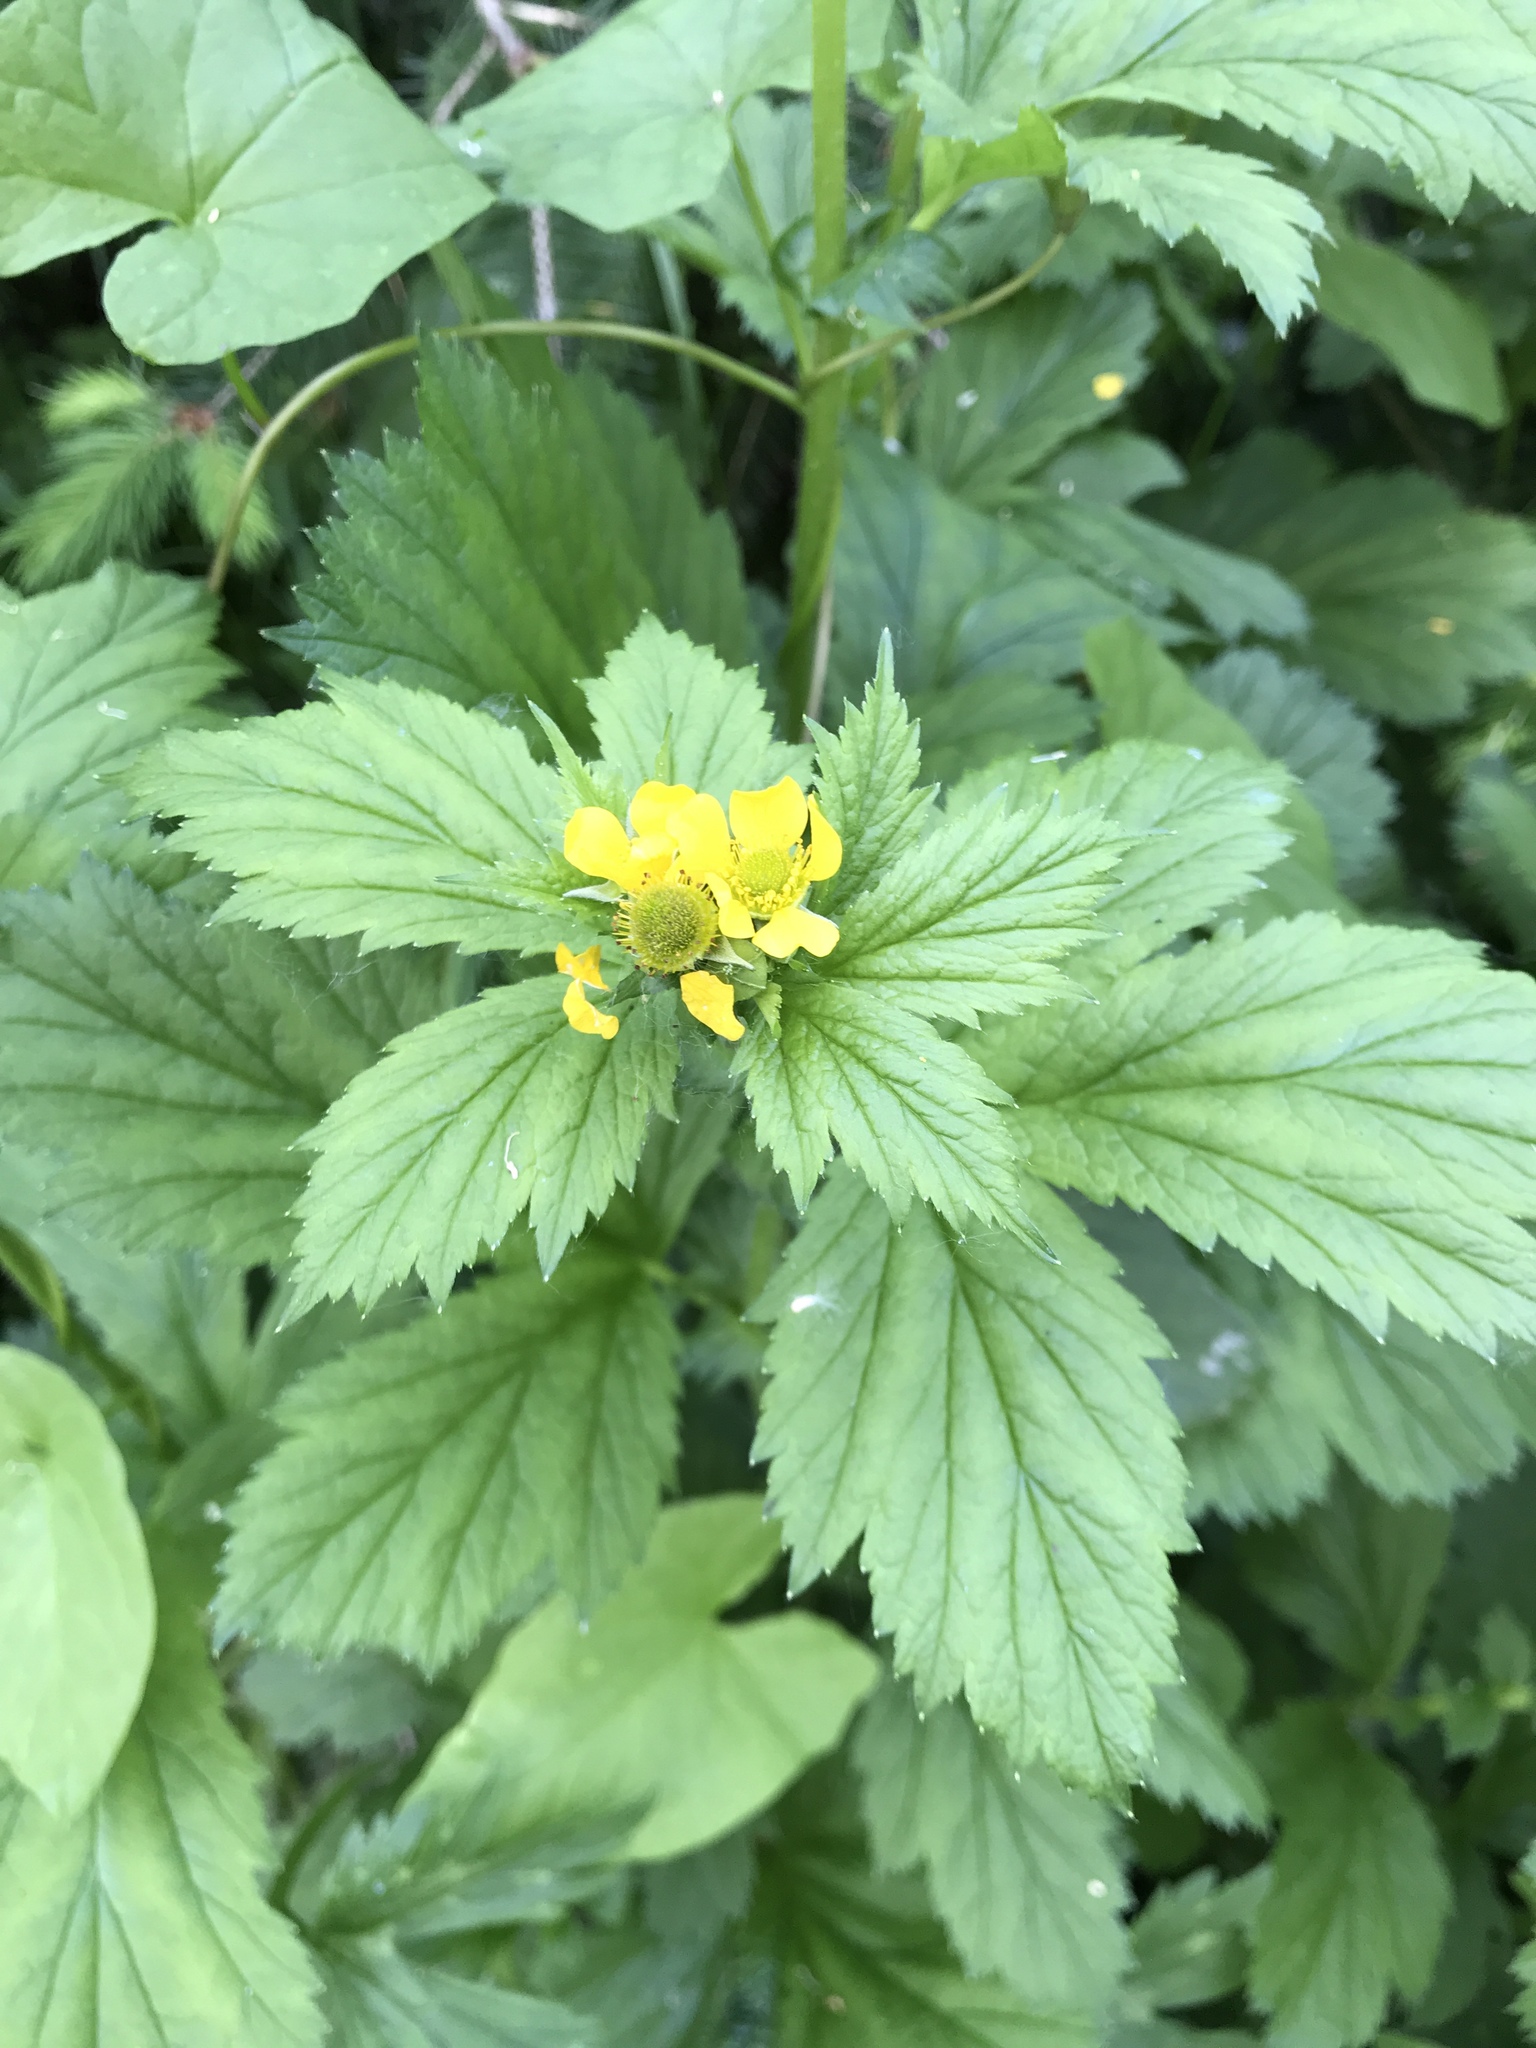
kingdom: Plantae
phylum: Tracheophyta
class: Magnoliopsida
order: Rosales
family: Rosaceae
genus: Geum
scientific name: Geum macrophyllum
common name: Large-leaved avens
